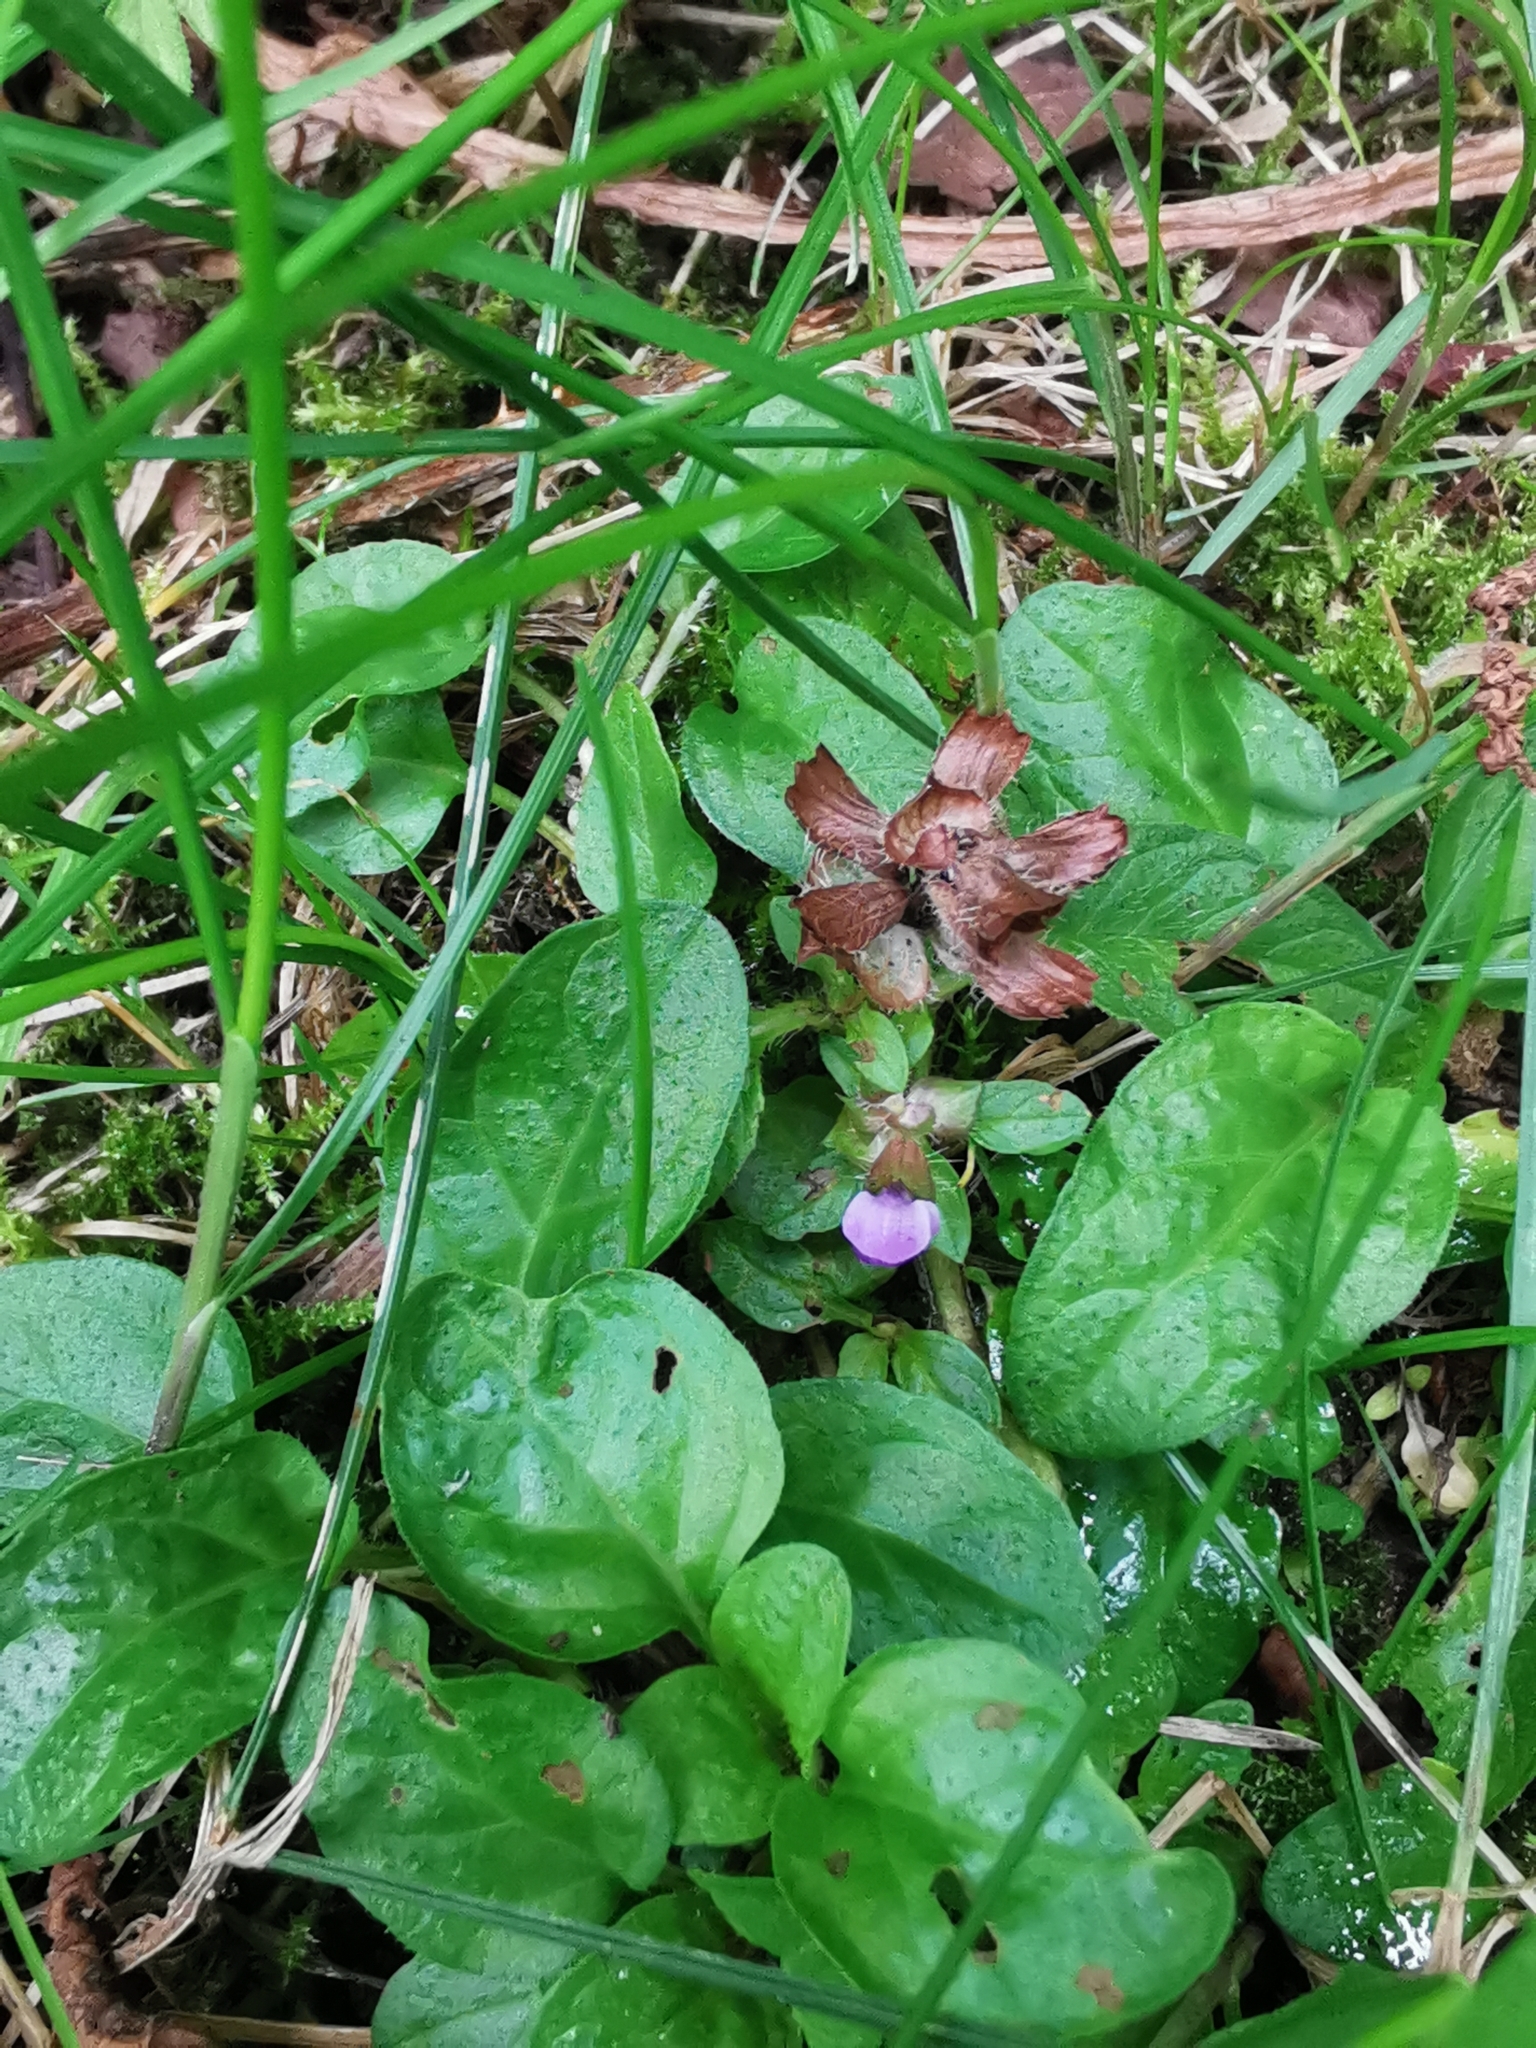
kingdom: Plantae
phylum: Tracheophyta
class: Magnoliopsida
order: Lamiales
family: Lamiaceae
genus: Prunella
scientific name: Prunella vulgaris
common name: Heal-all
